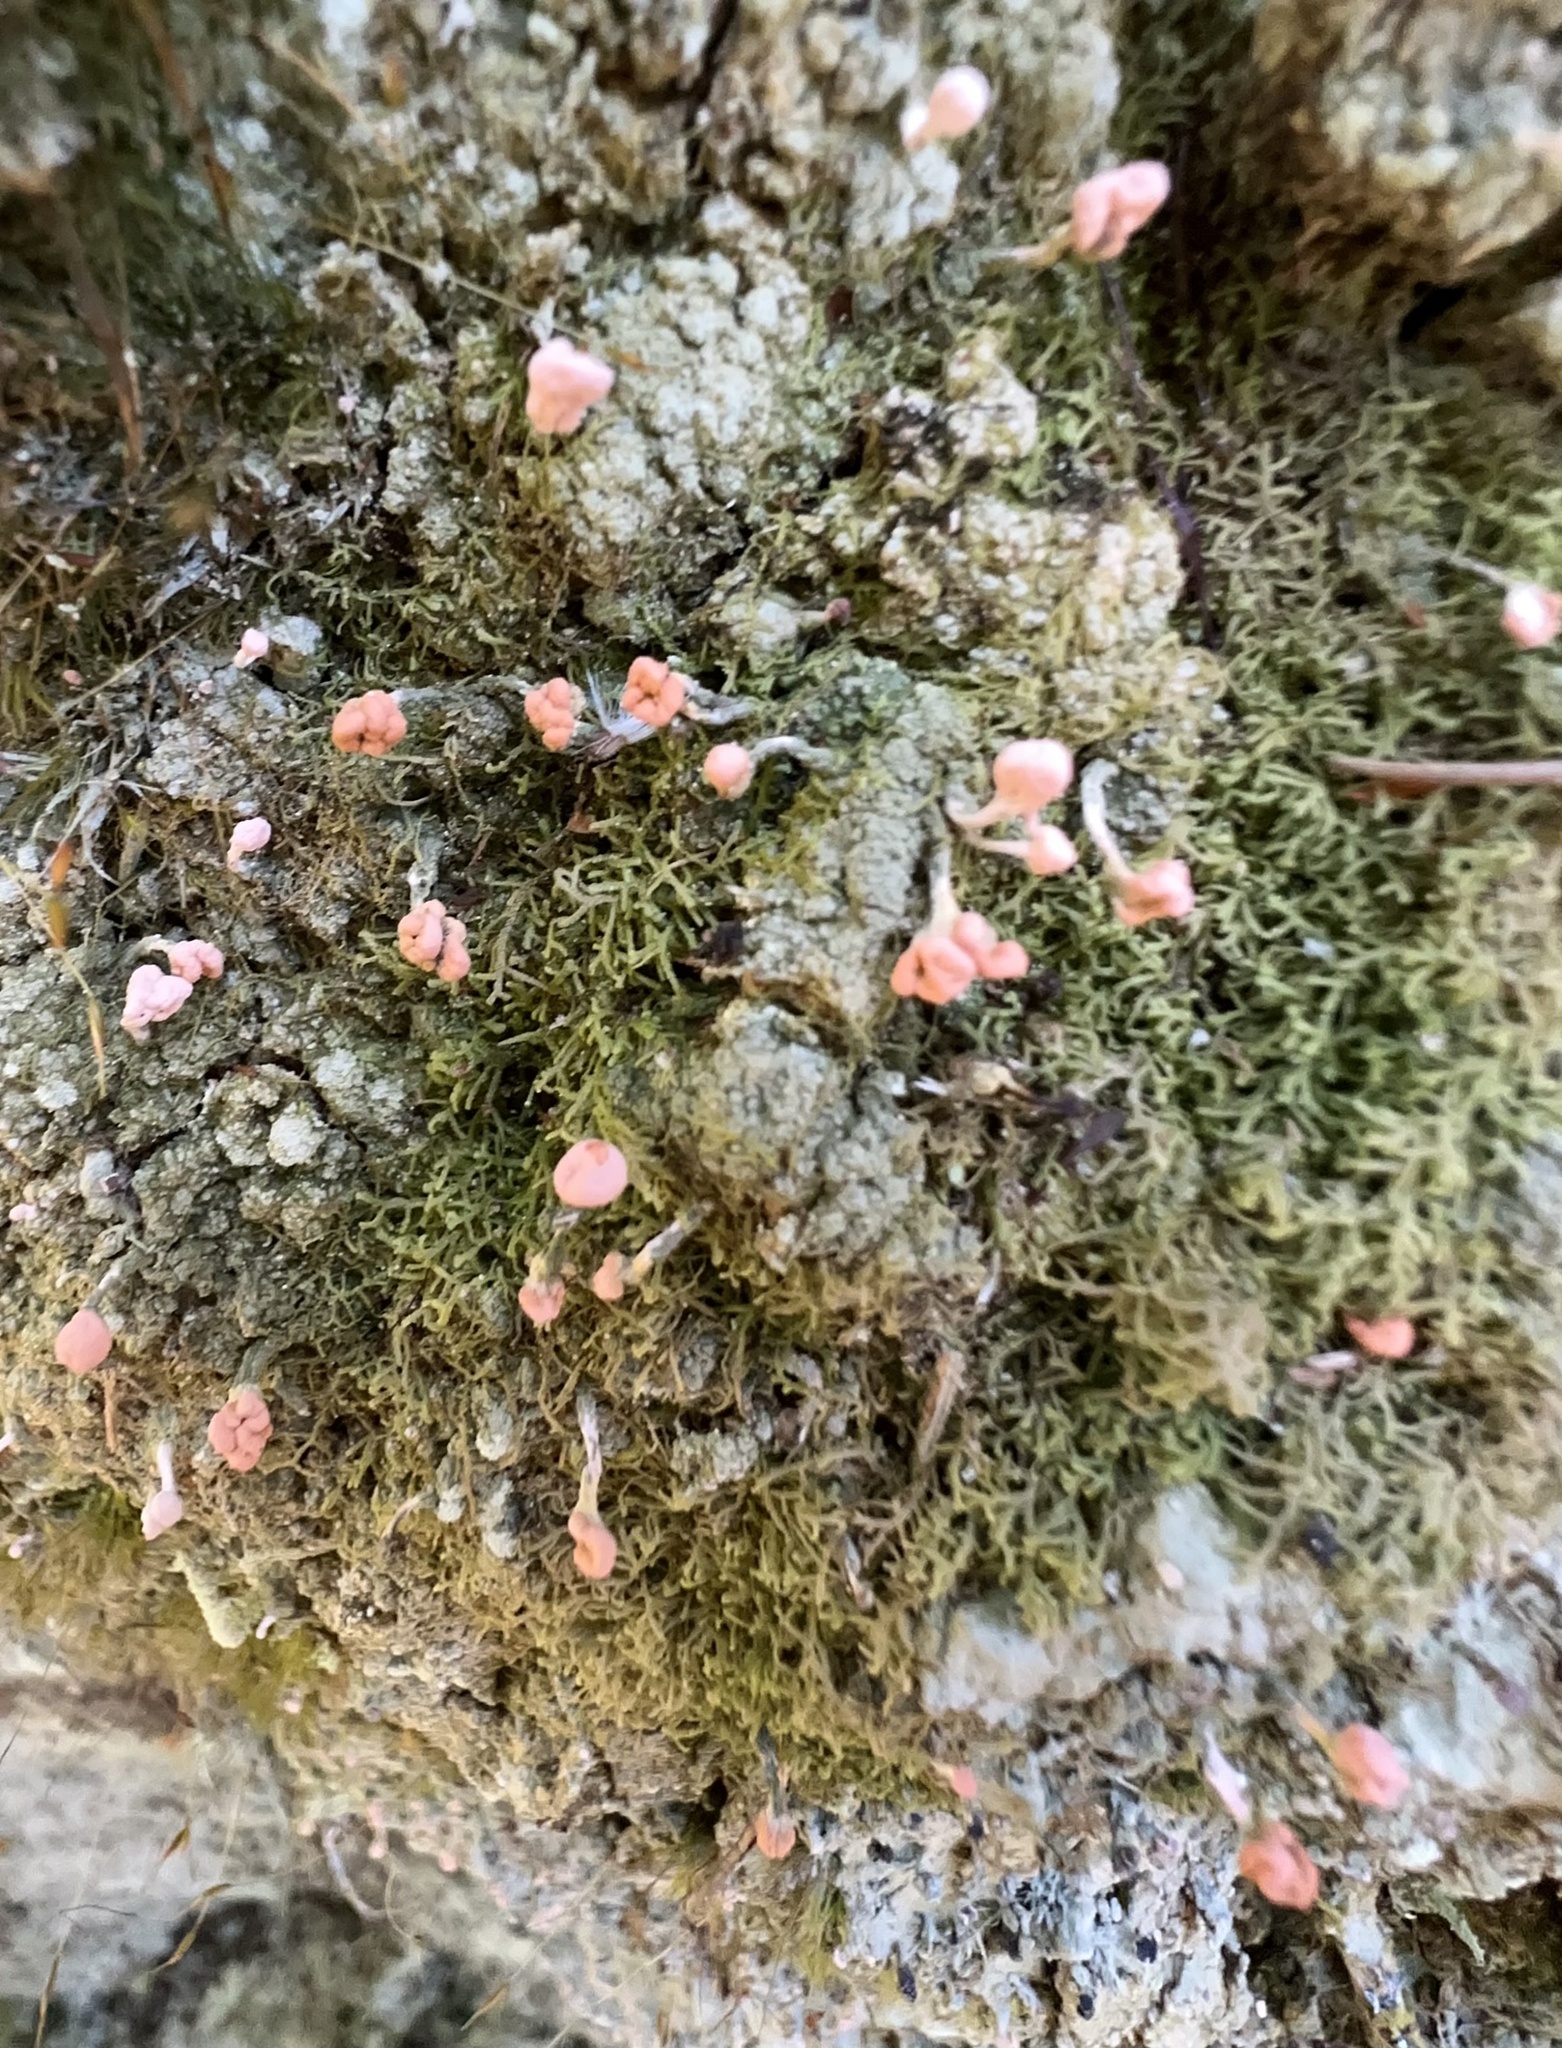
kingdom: Fungi
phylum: Ascomycota
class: Lecanoromycetes
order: Pertusariales
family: Icmadophilaceae
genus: Dibaeis
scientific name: Dibaeis arcuata
